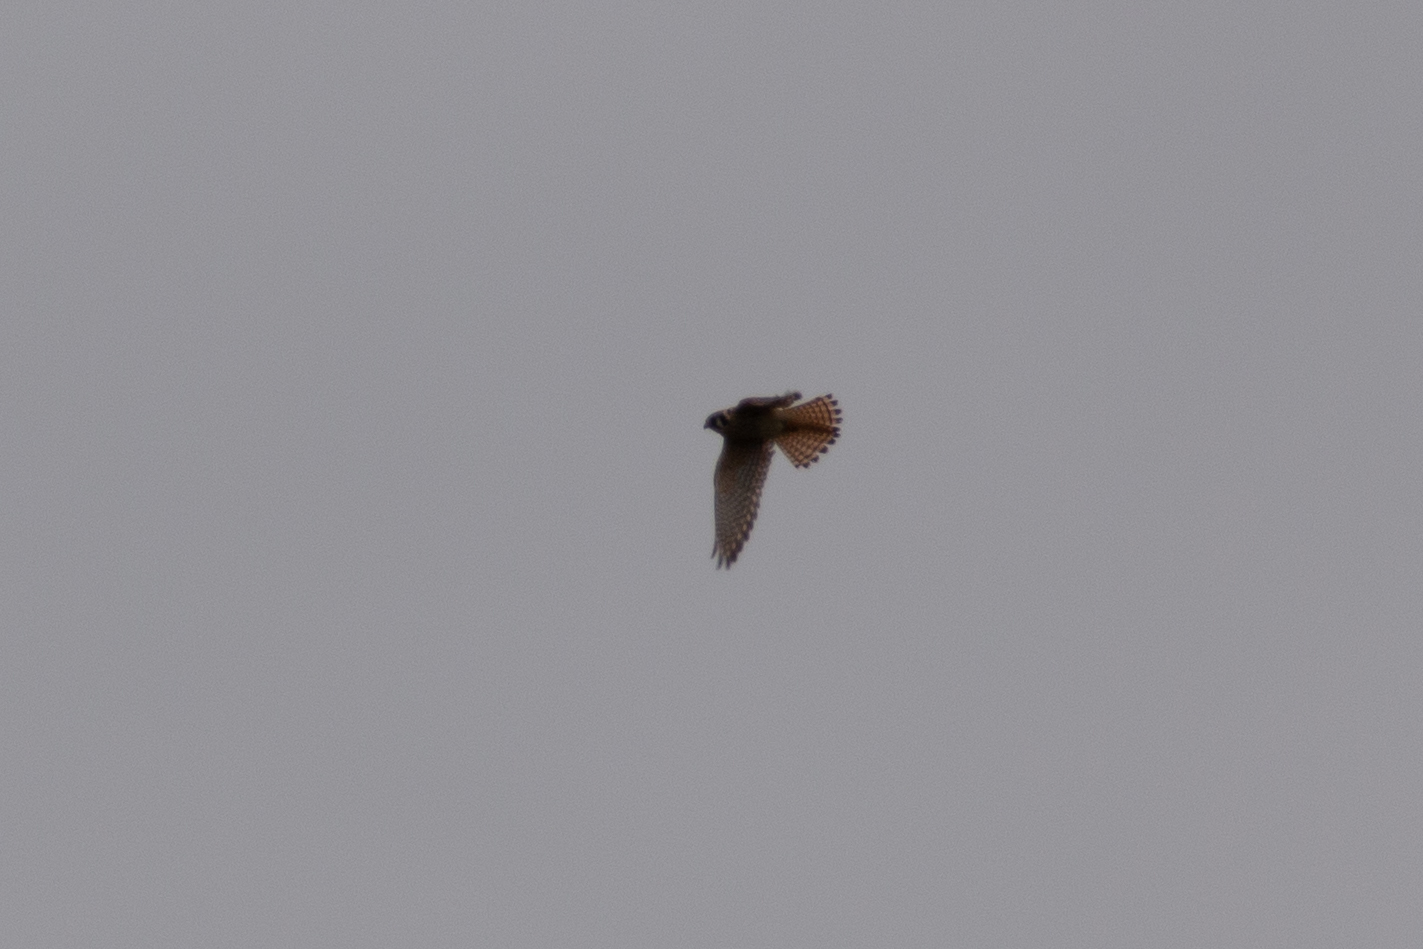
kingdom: Animalia
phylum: Chordata
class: Aves
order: Falconiformes
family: Falconidae
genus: Falco
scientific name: Falco sparverius
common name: American kestrel
